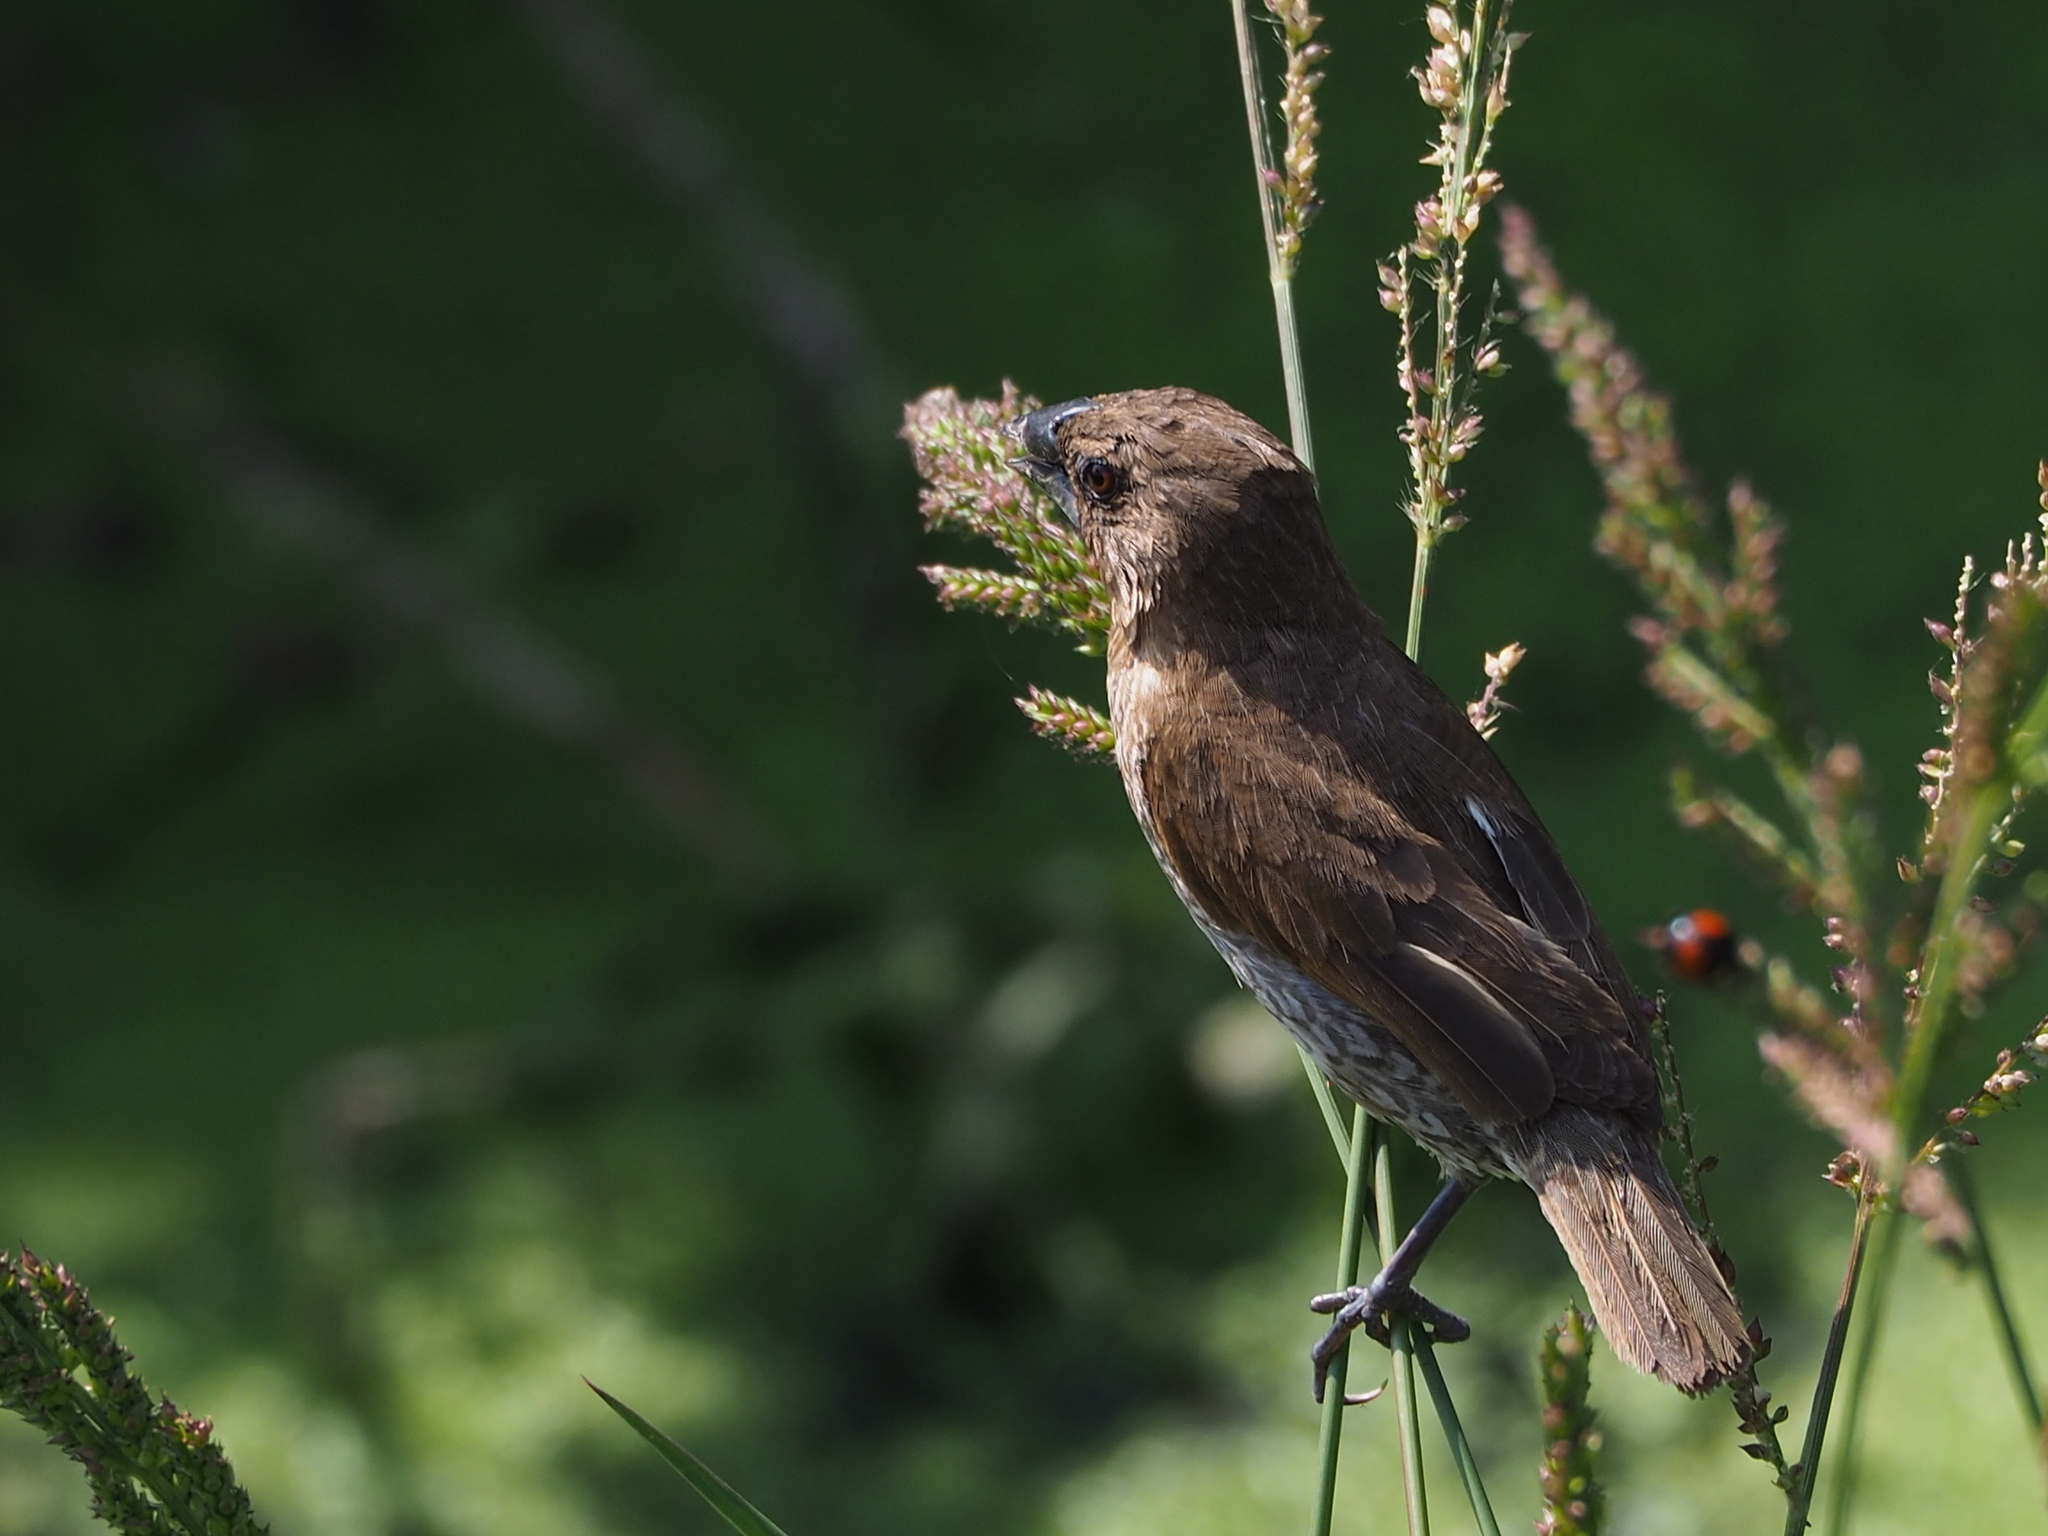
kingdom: Animalia
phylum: Chordata
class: Aves
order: Passeriformes
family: Estrildidae
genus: Lonchura
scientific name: Lonchura punctulata
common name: Scaly-breasted munia
